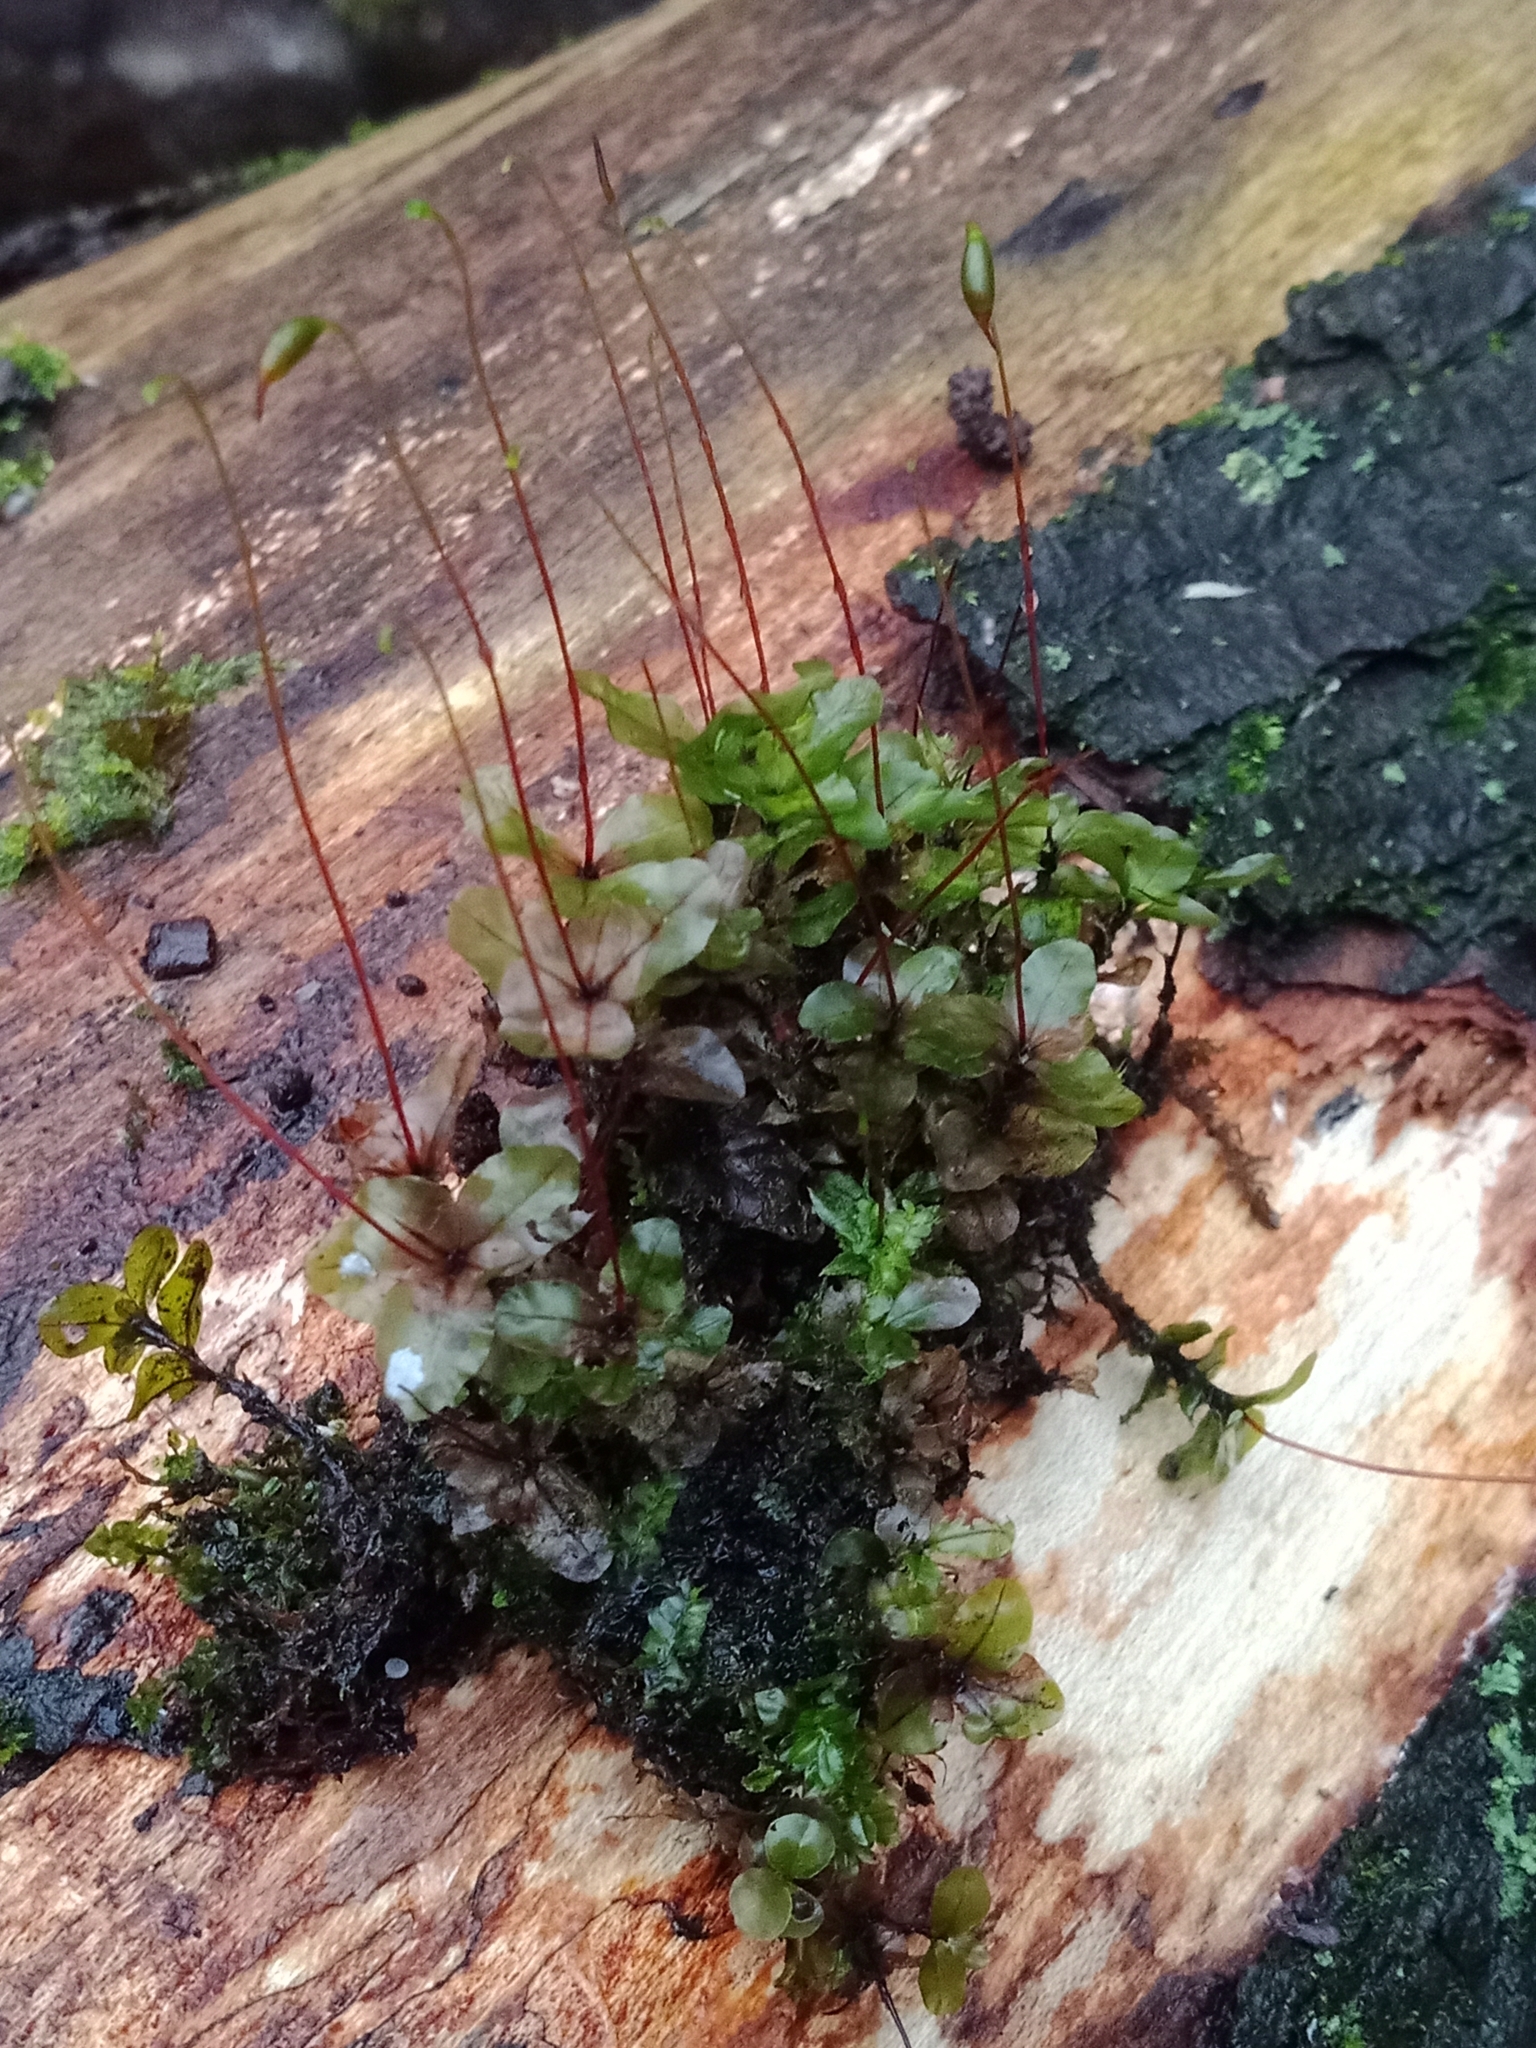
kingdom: Plantae
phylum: Bryophyta
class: Bryopsida
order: Bryales
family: Mniaceae
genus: Rhizomnium
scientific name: Rhizomnium punctatum
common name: Dotted leafy moss
